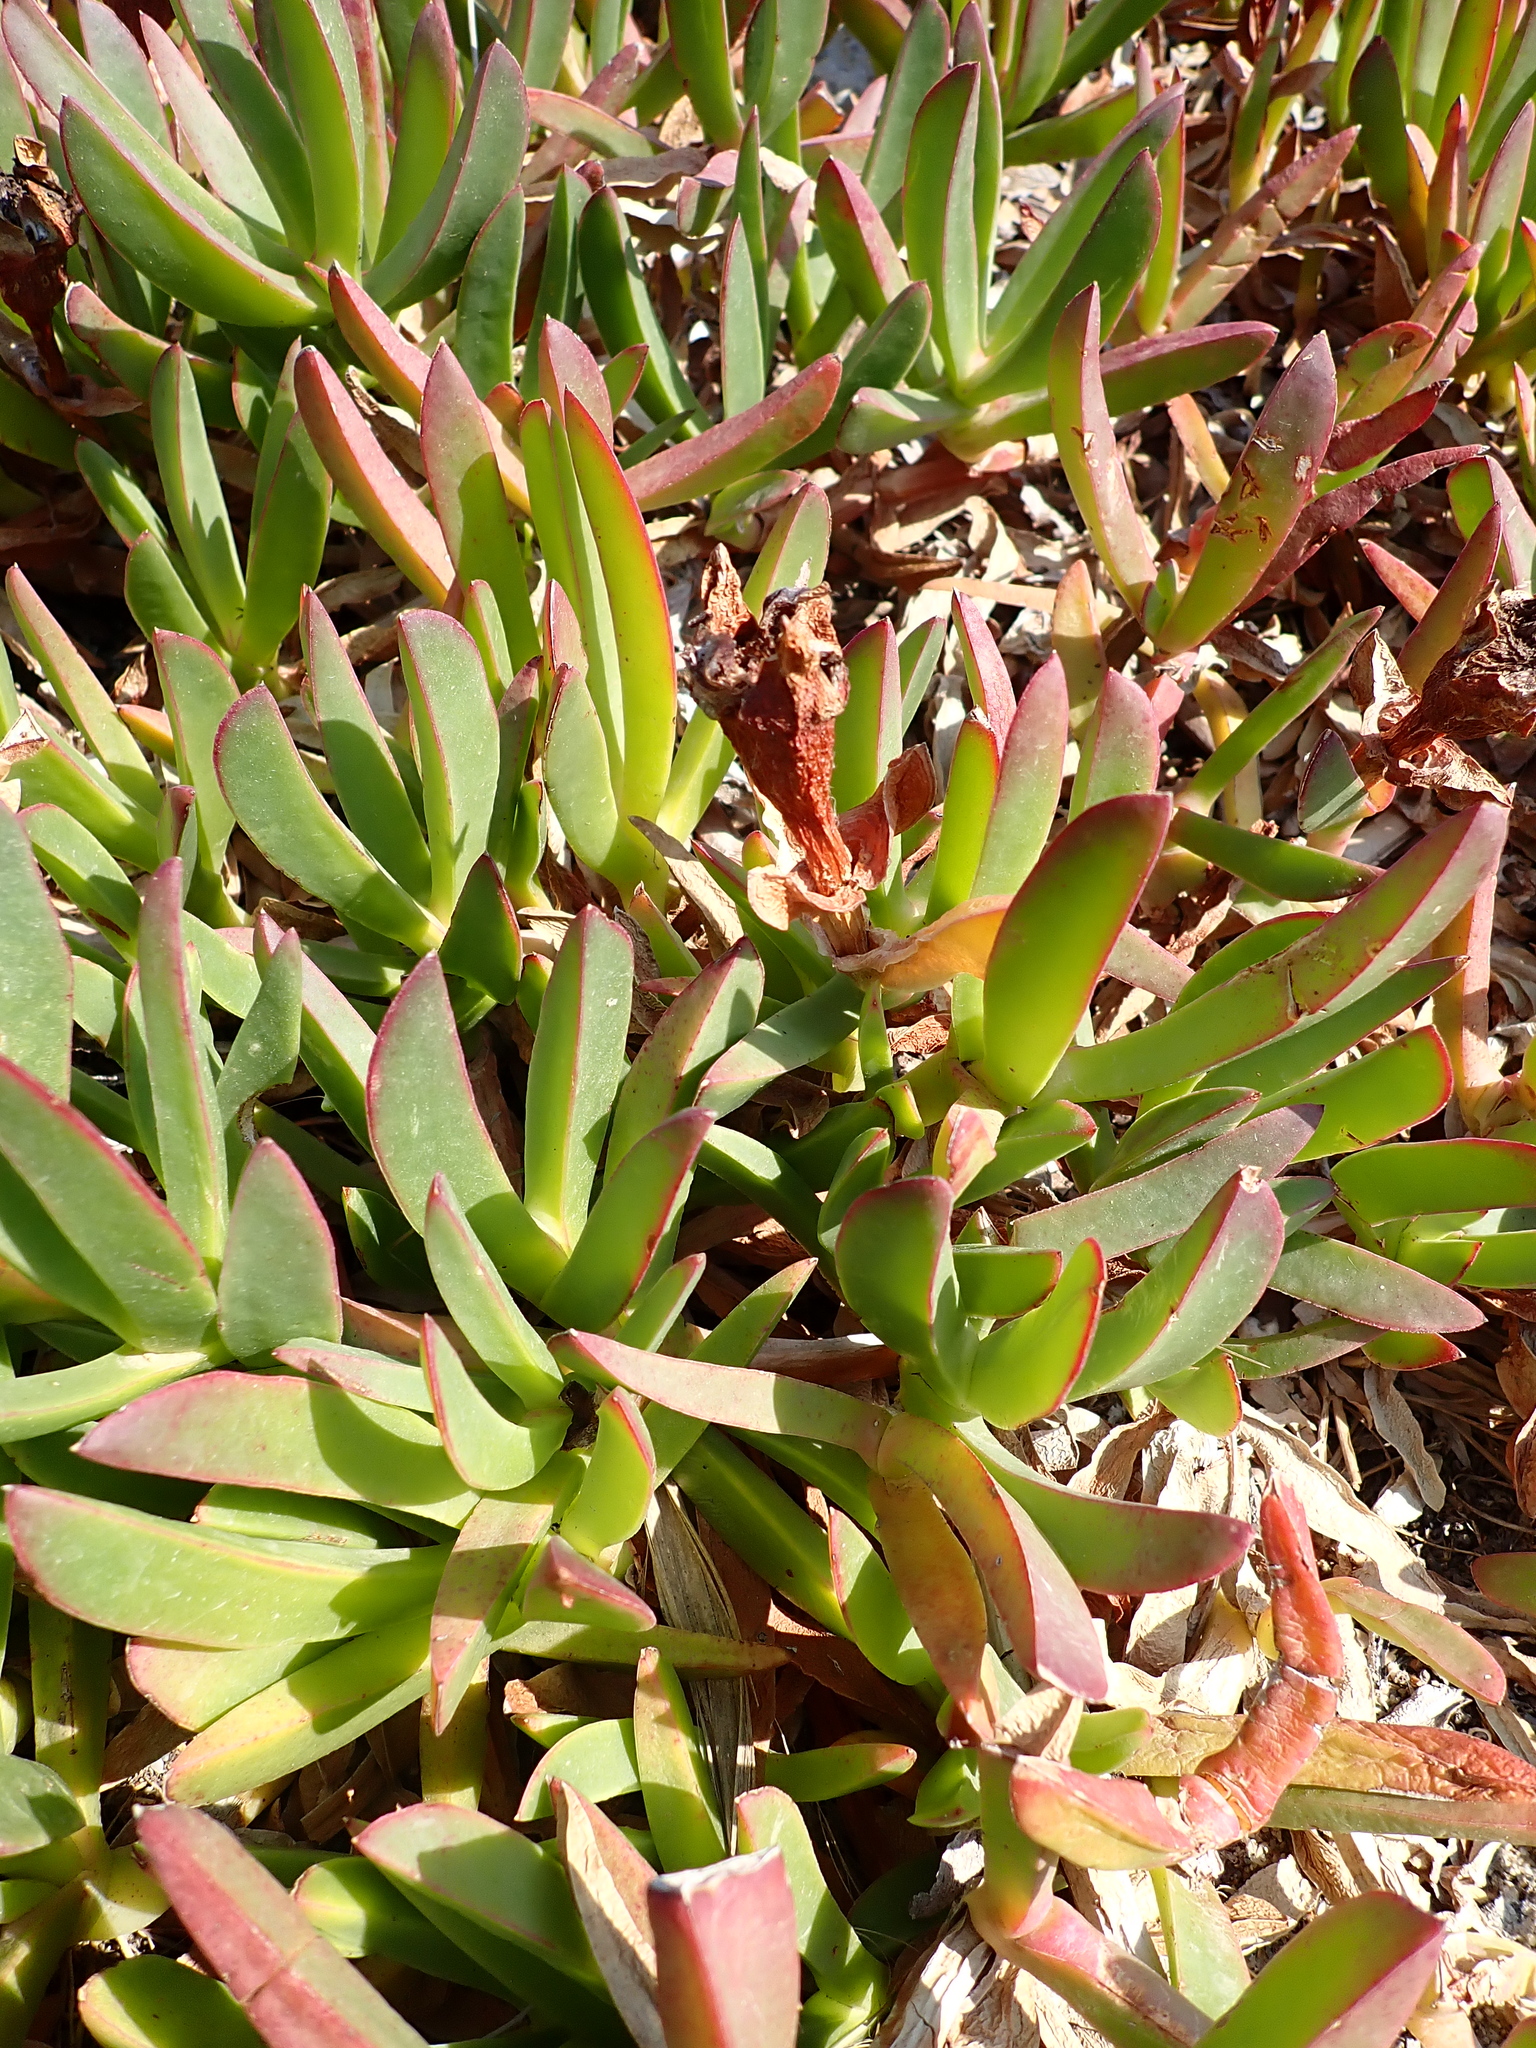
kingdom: Plantae
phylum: Tracheophyta
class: Magnoliopsida
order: Caryophyllales
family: Aizoaceae
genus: Carpobrotus
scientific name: Carpobrotus edulis
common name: Hottentot-fig
